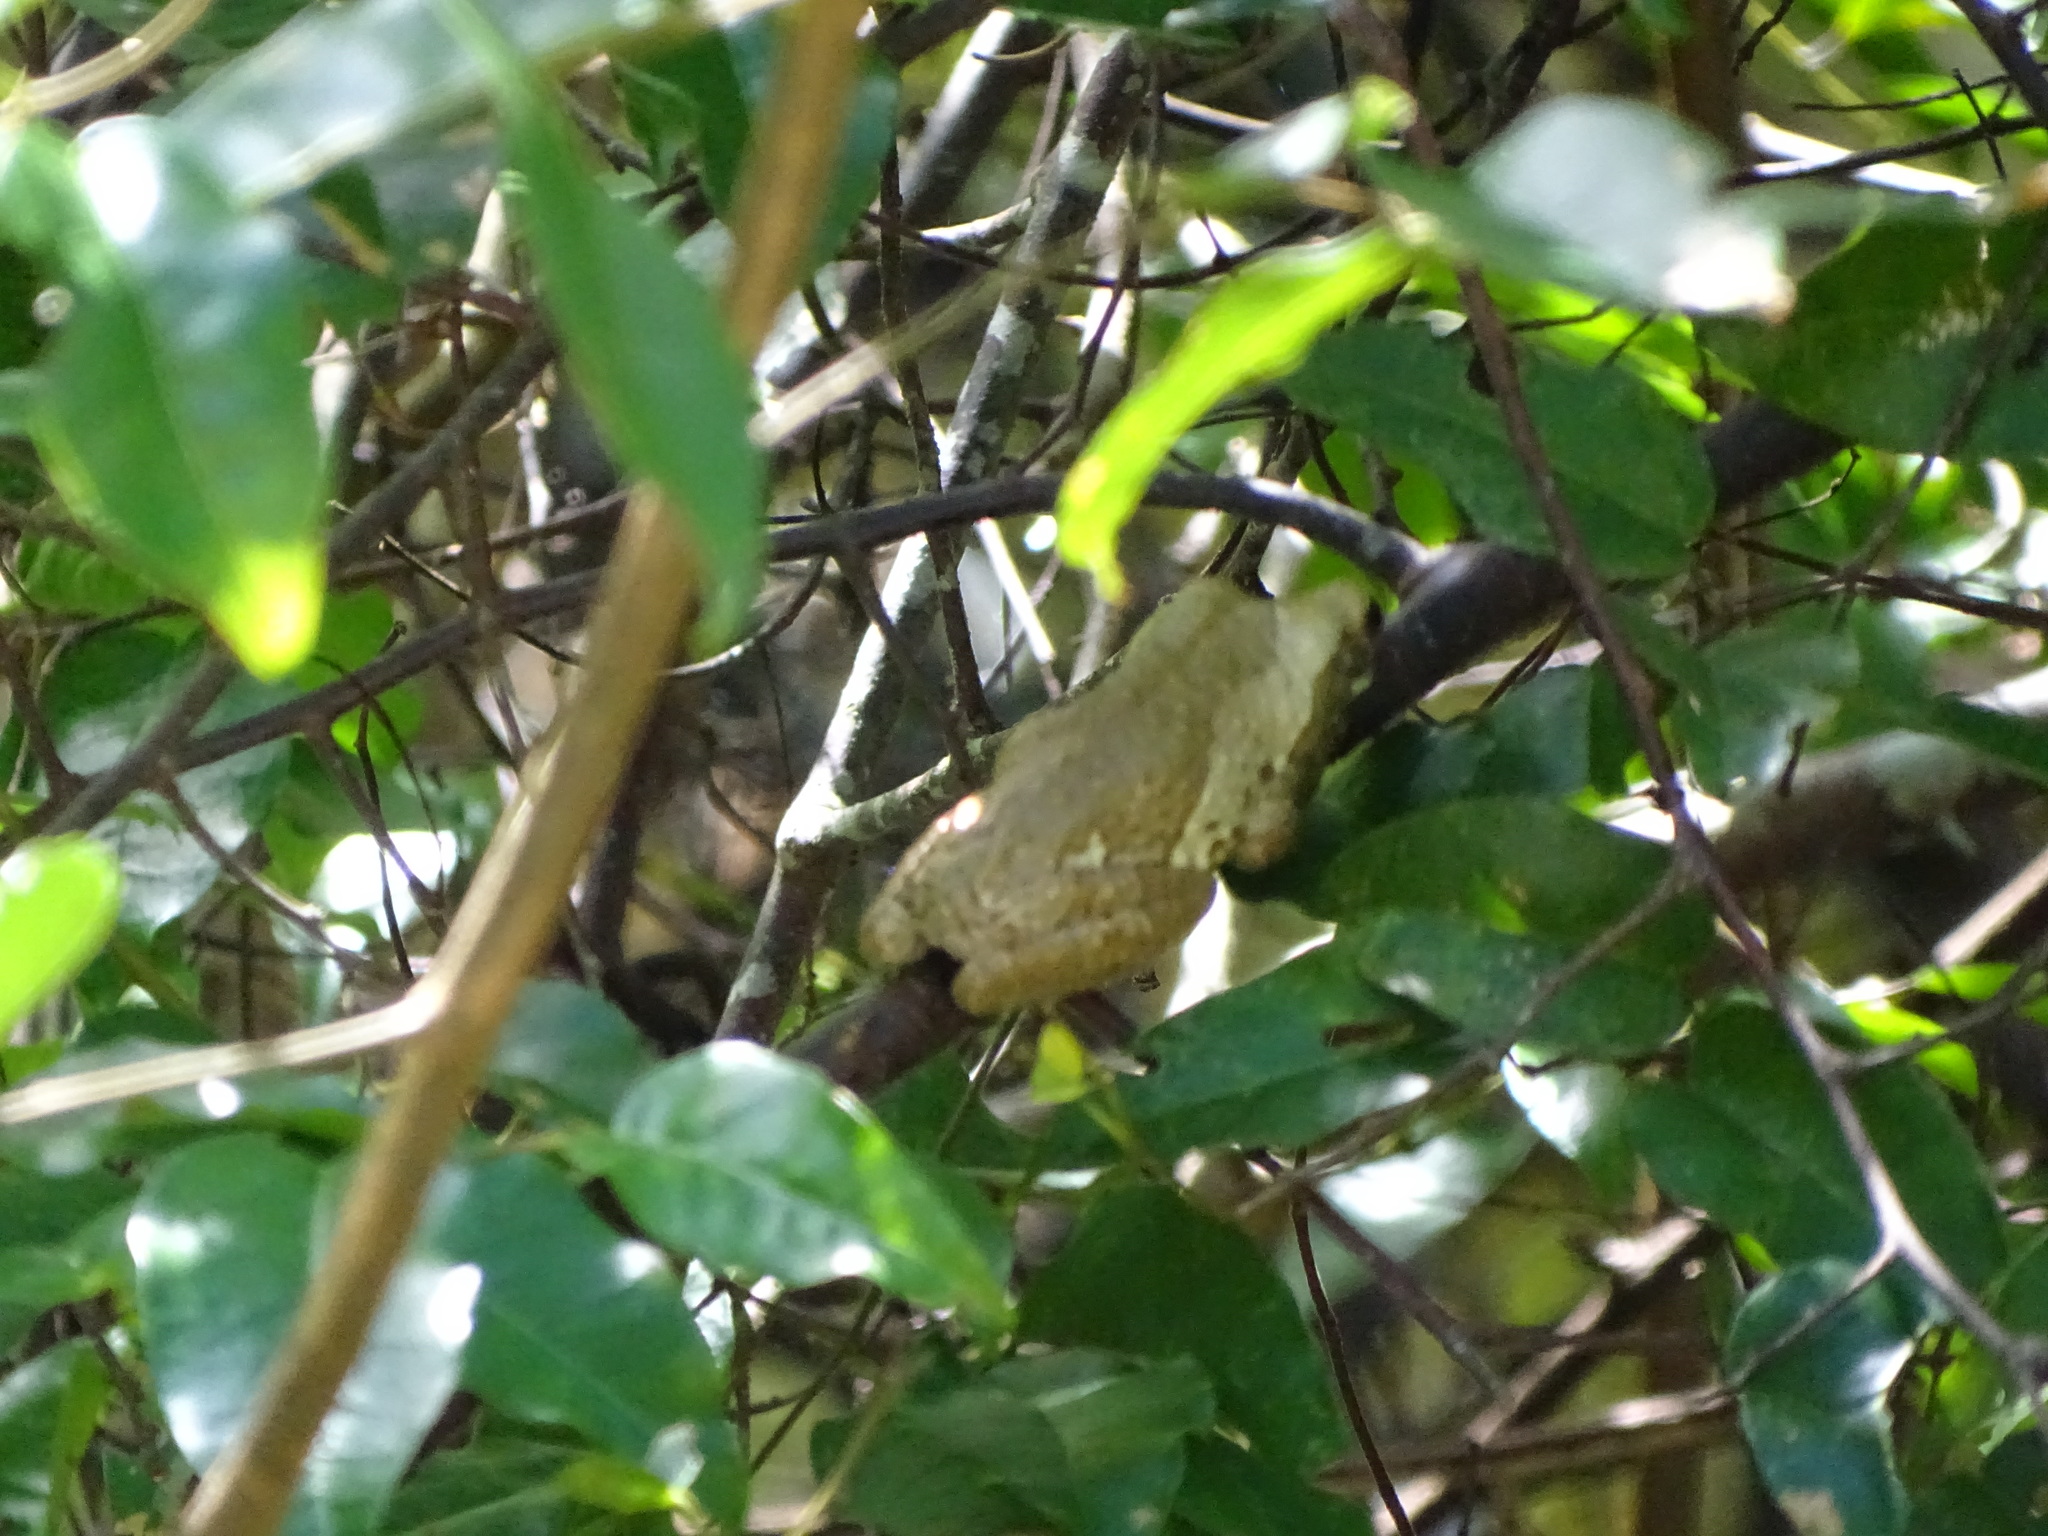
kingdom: Animalia
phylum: Chordata
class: Amphibia
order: Anura
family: Hylidae
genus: Trachycephalus
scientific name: Trachycephalus vermiculatus
